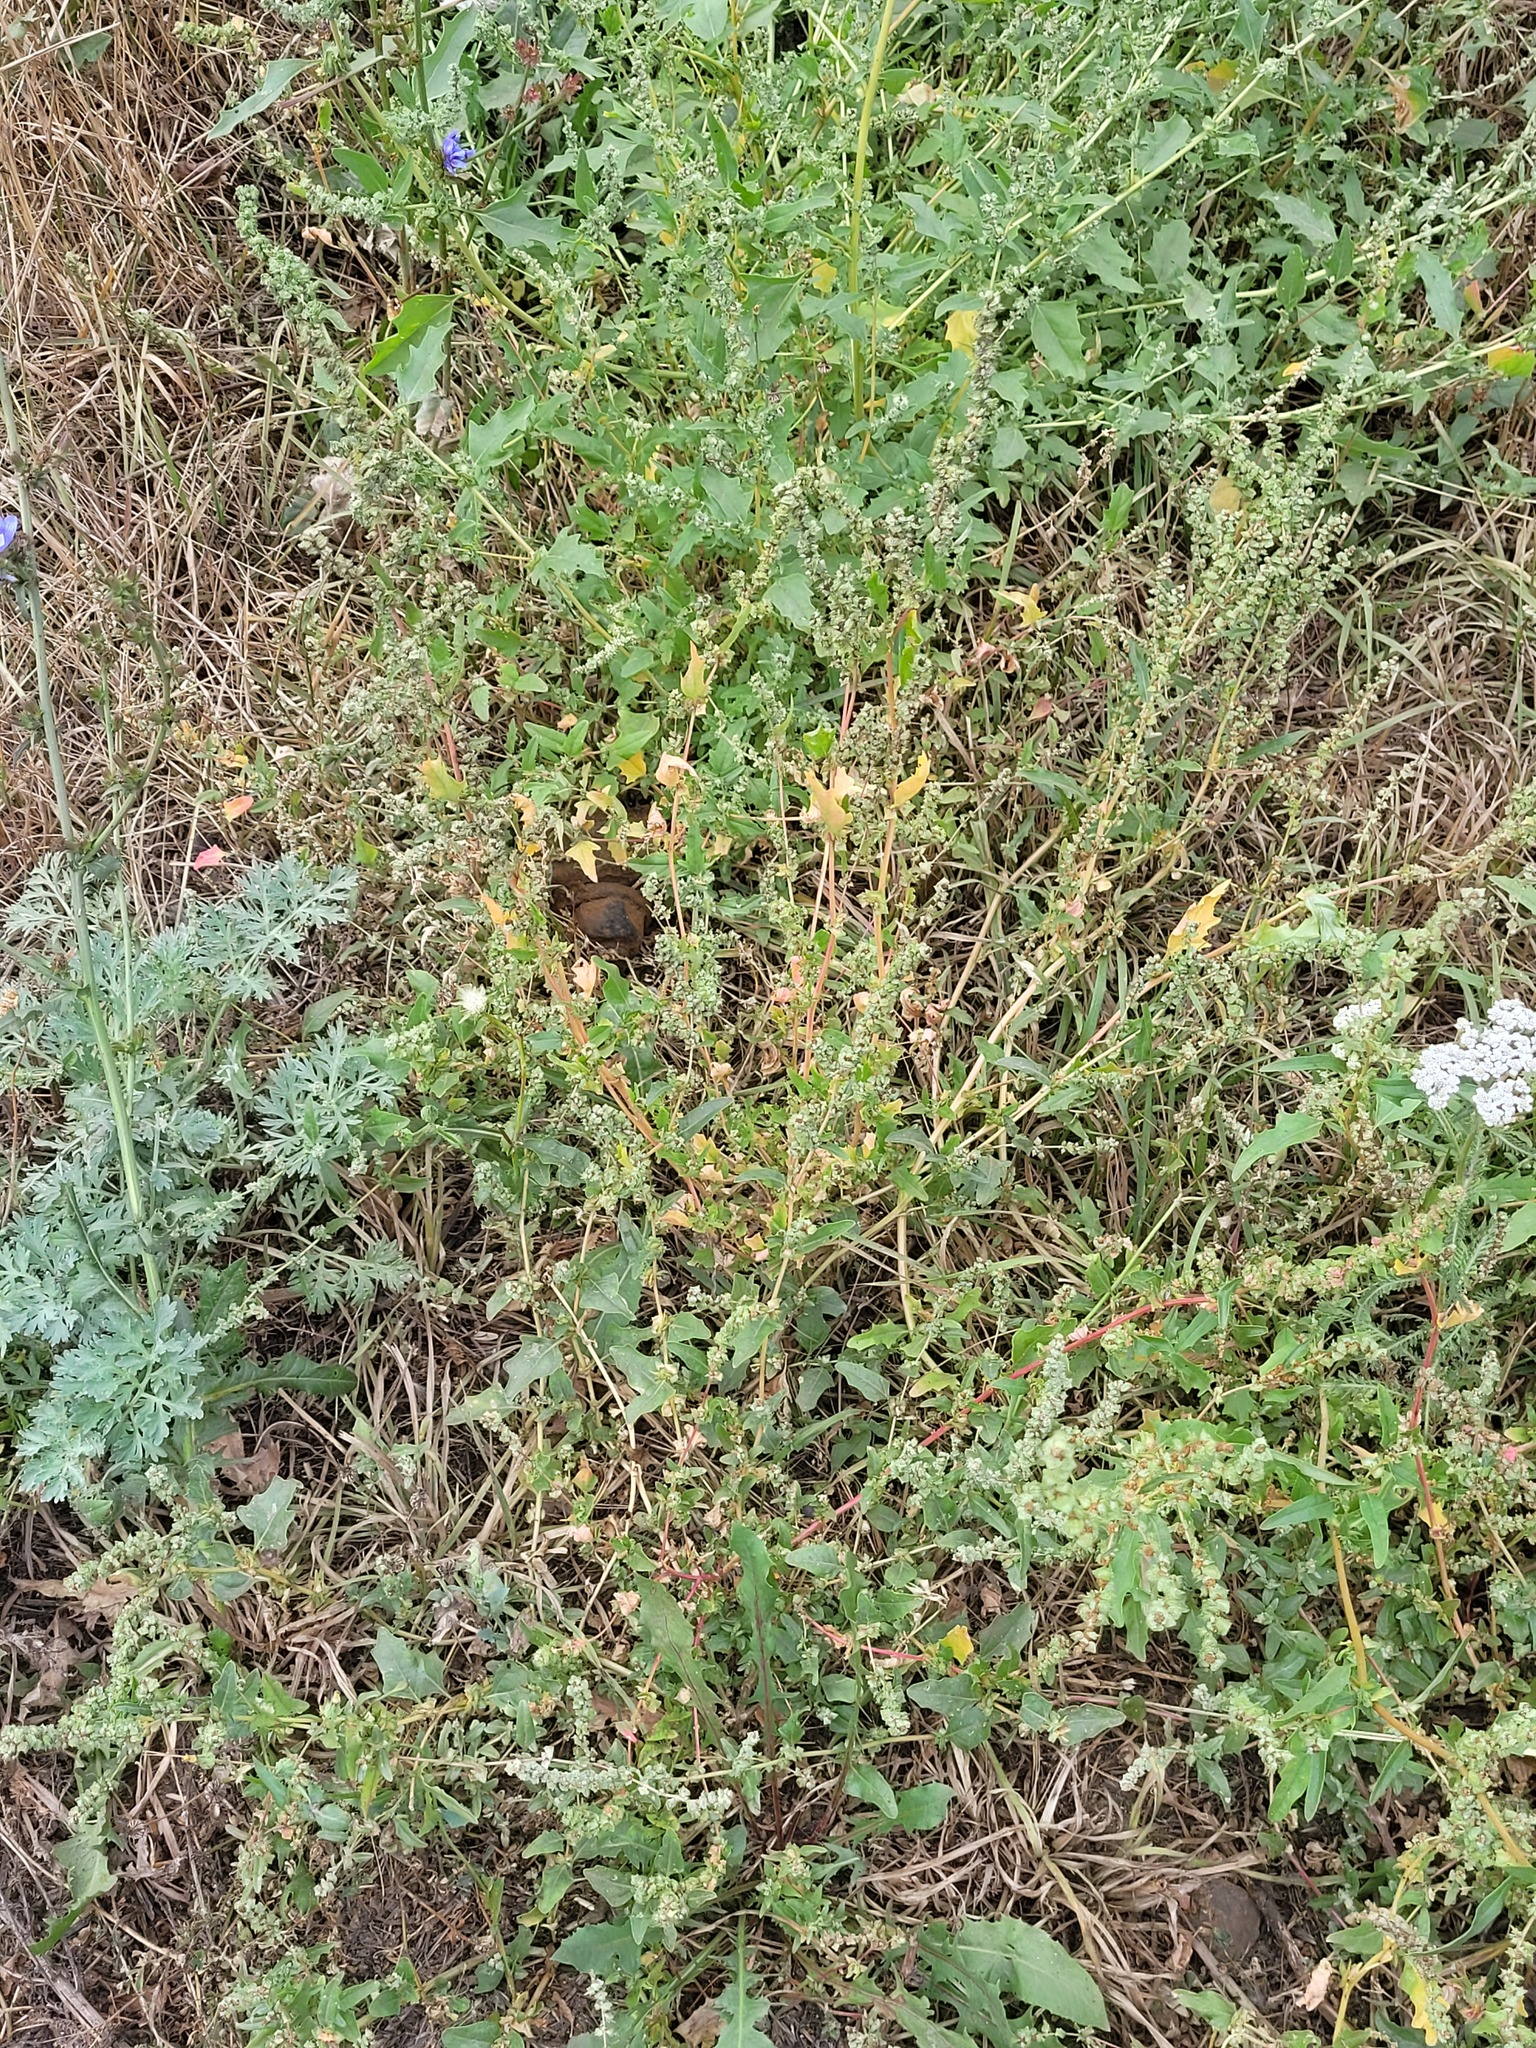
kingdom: Plantae
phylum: Tracheophyta
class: Magnoliopsida
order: Caryophyllales
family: Amaranthaceae
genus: Atriplex
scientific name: Atriplex tatarica
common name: Tatarian orache
